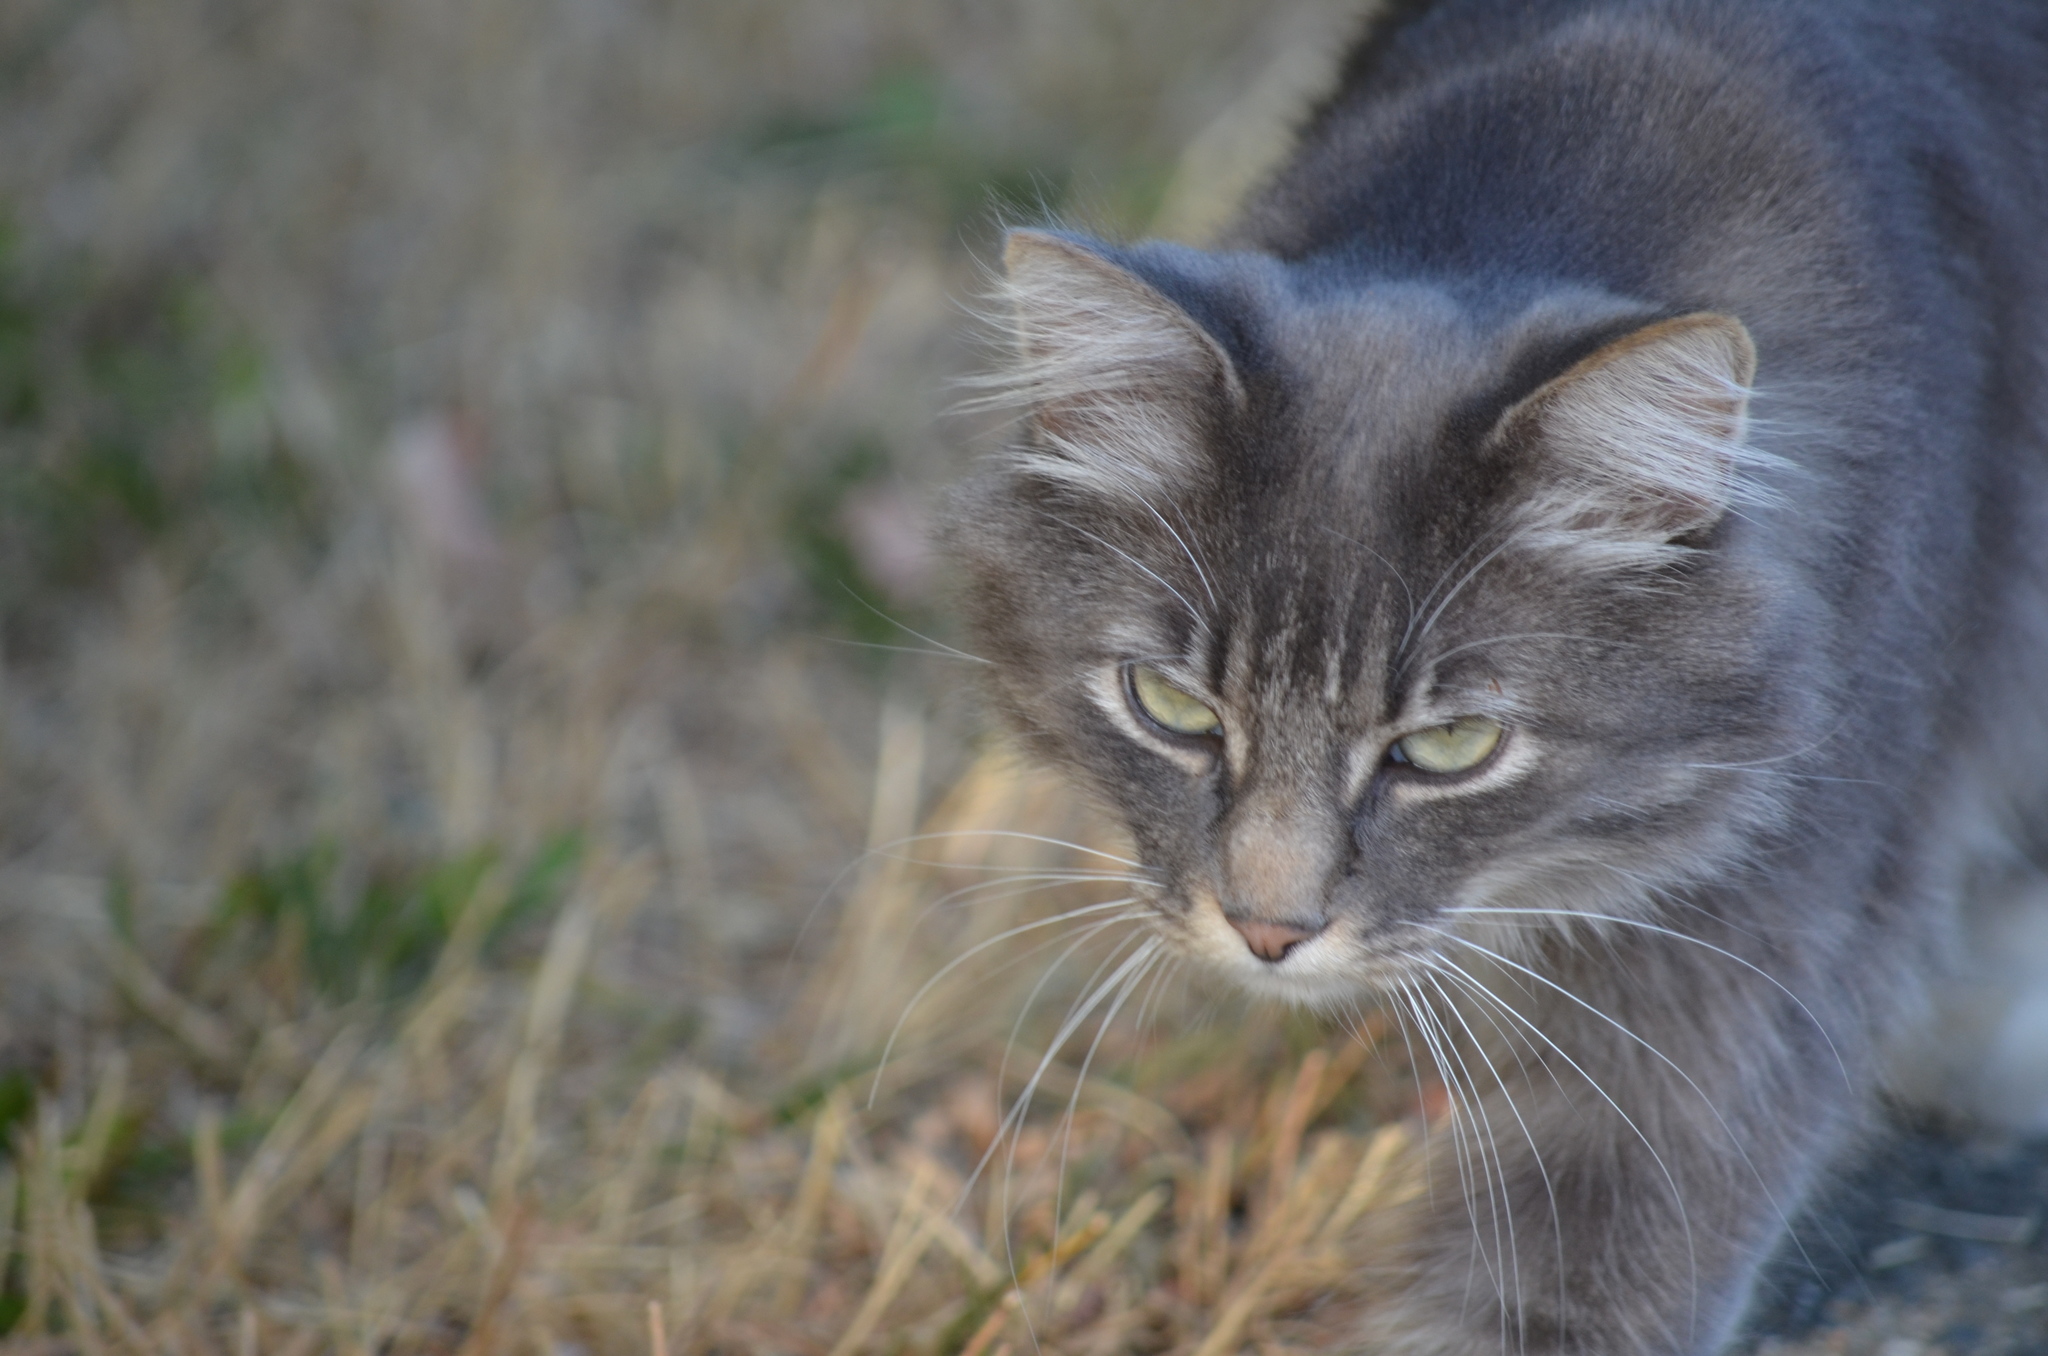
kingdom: Animalia
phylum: Chordata
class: Mammalia
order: Carnivora
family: Felidae
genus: Felis
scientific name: Felis catus
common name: Domestic cat
